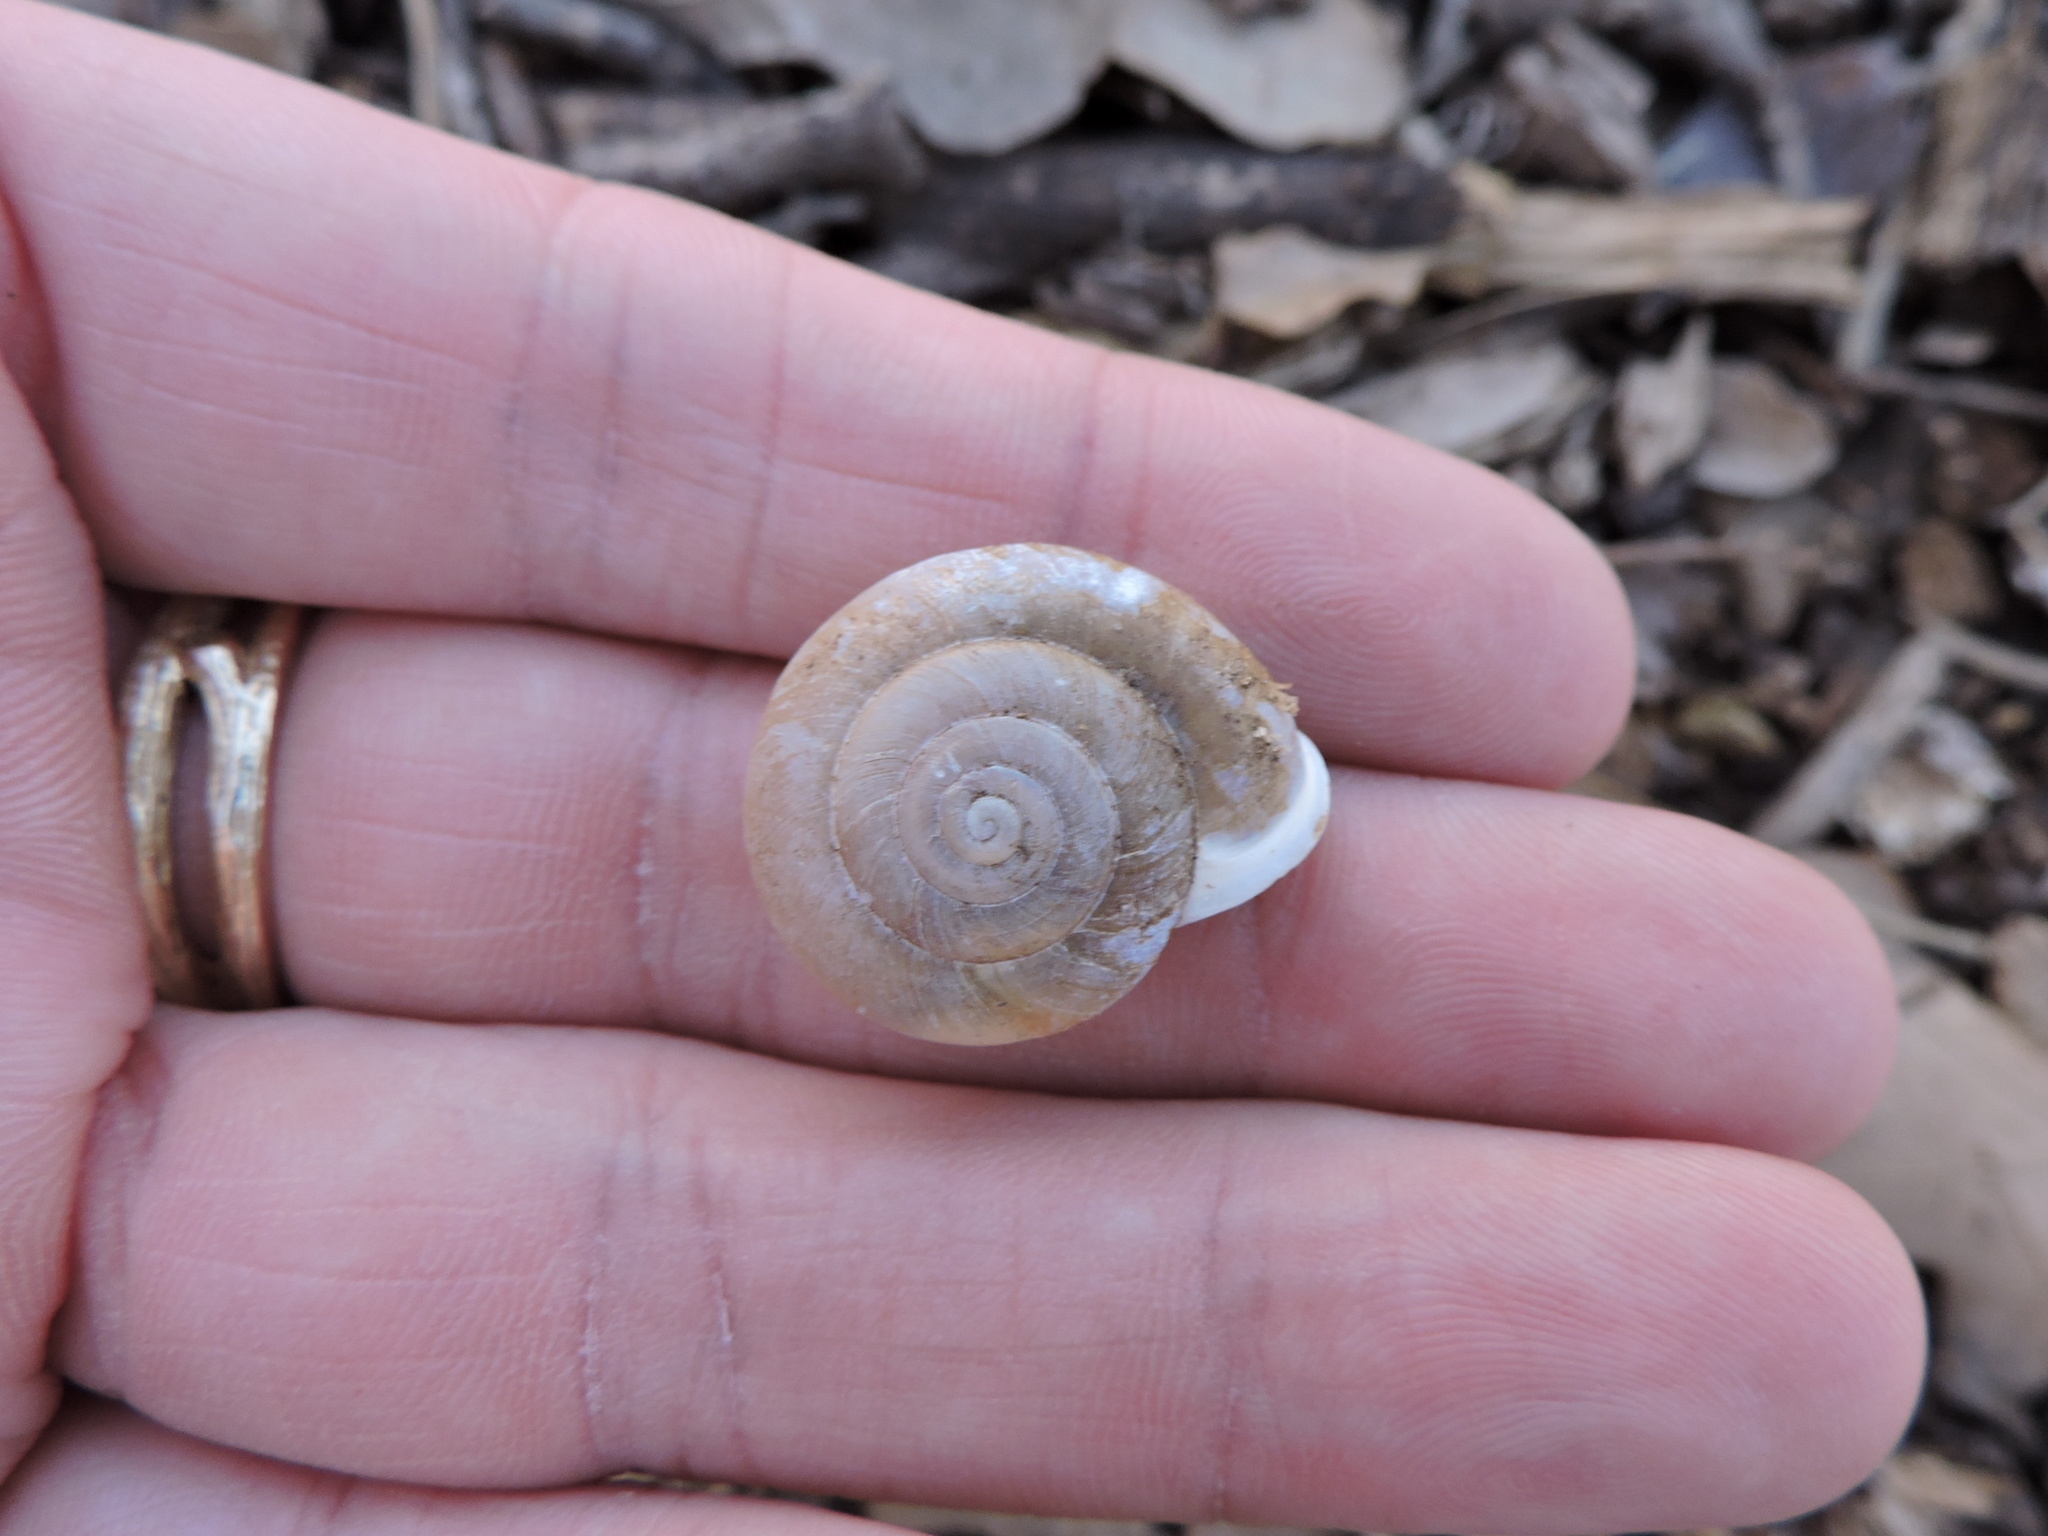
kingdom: Animalia
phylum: Mollusca
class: Gastropoda
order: Stylommatophora
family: Polygyridae
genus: Patera
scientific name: Patera roemeri
